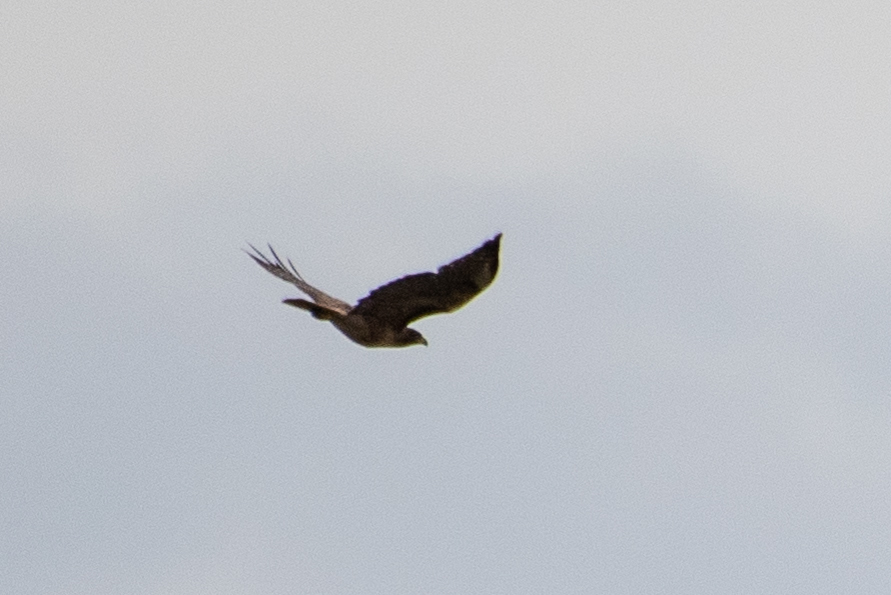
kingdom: Animalia
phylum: Chordata
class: Aves
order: Accipitriformes
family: Accipitridae
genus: Buteo
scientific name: Buteo jamaicensis
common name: Red-tailed hawk
